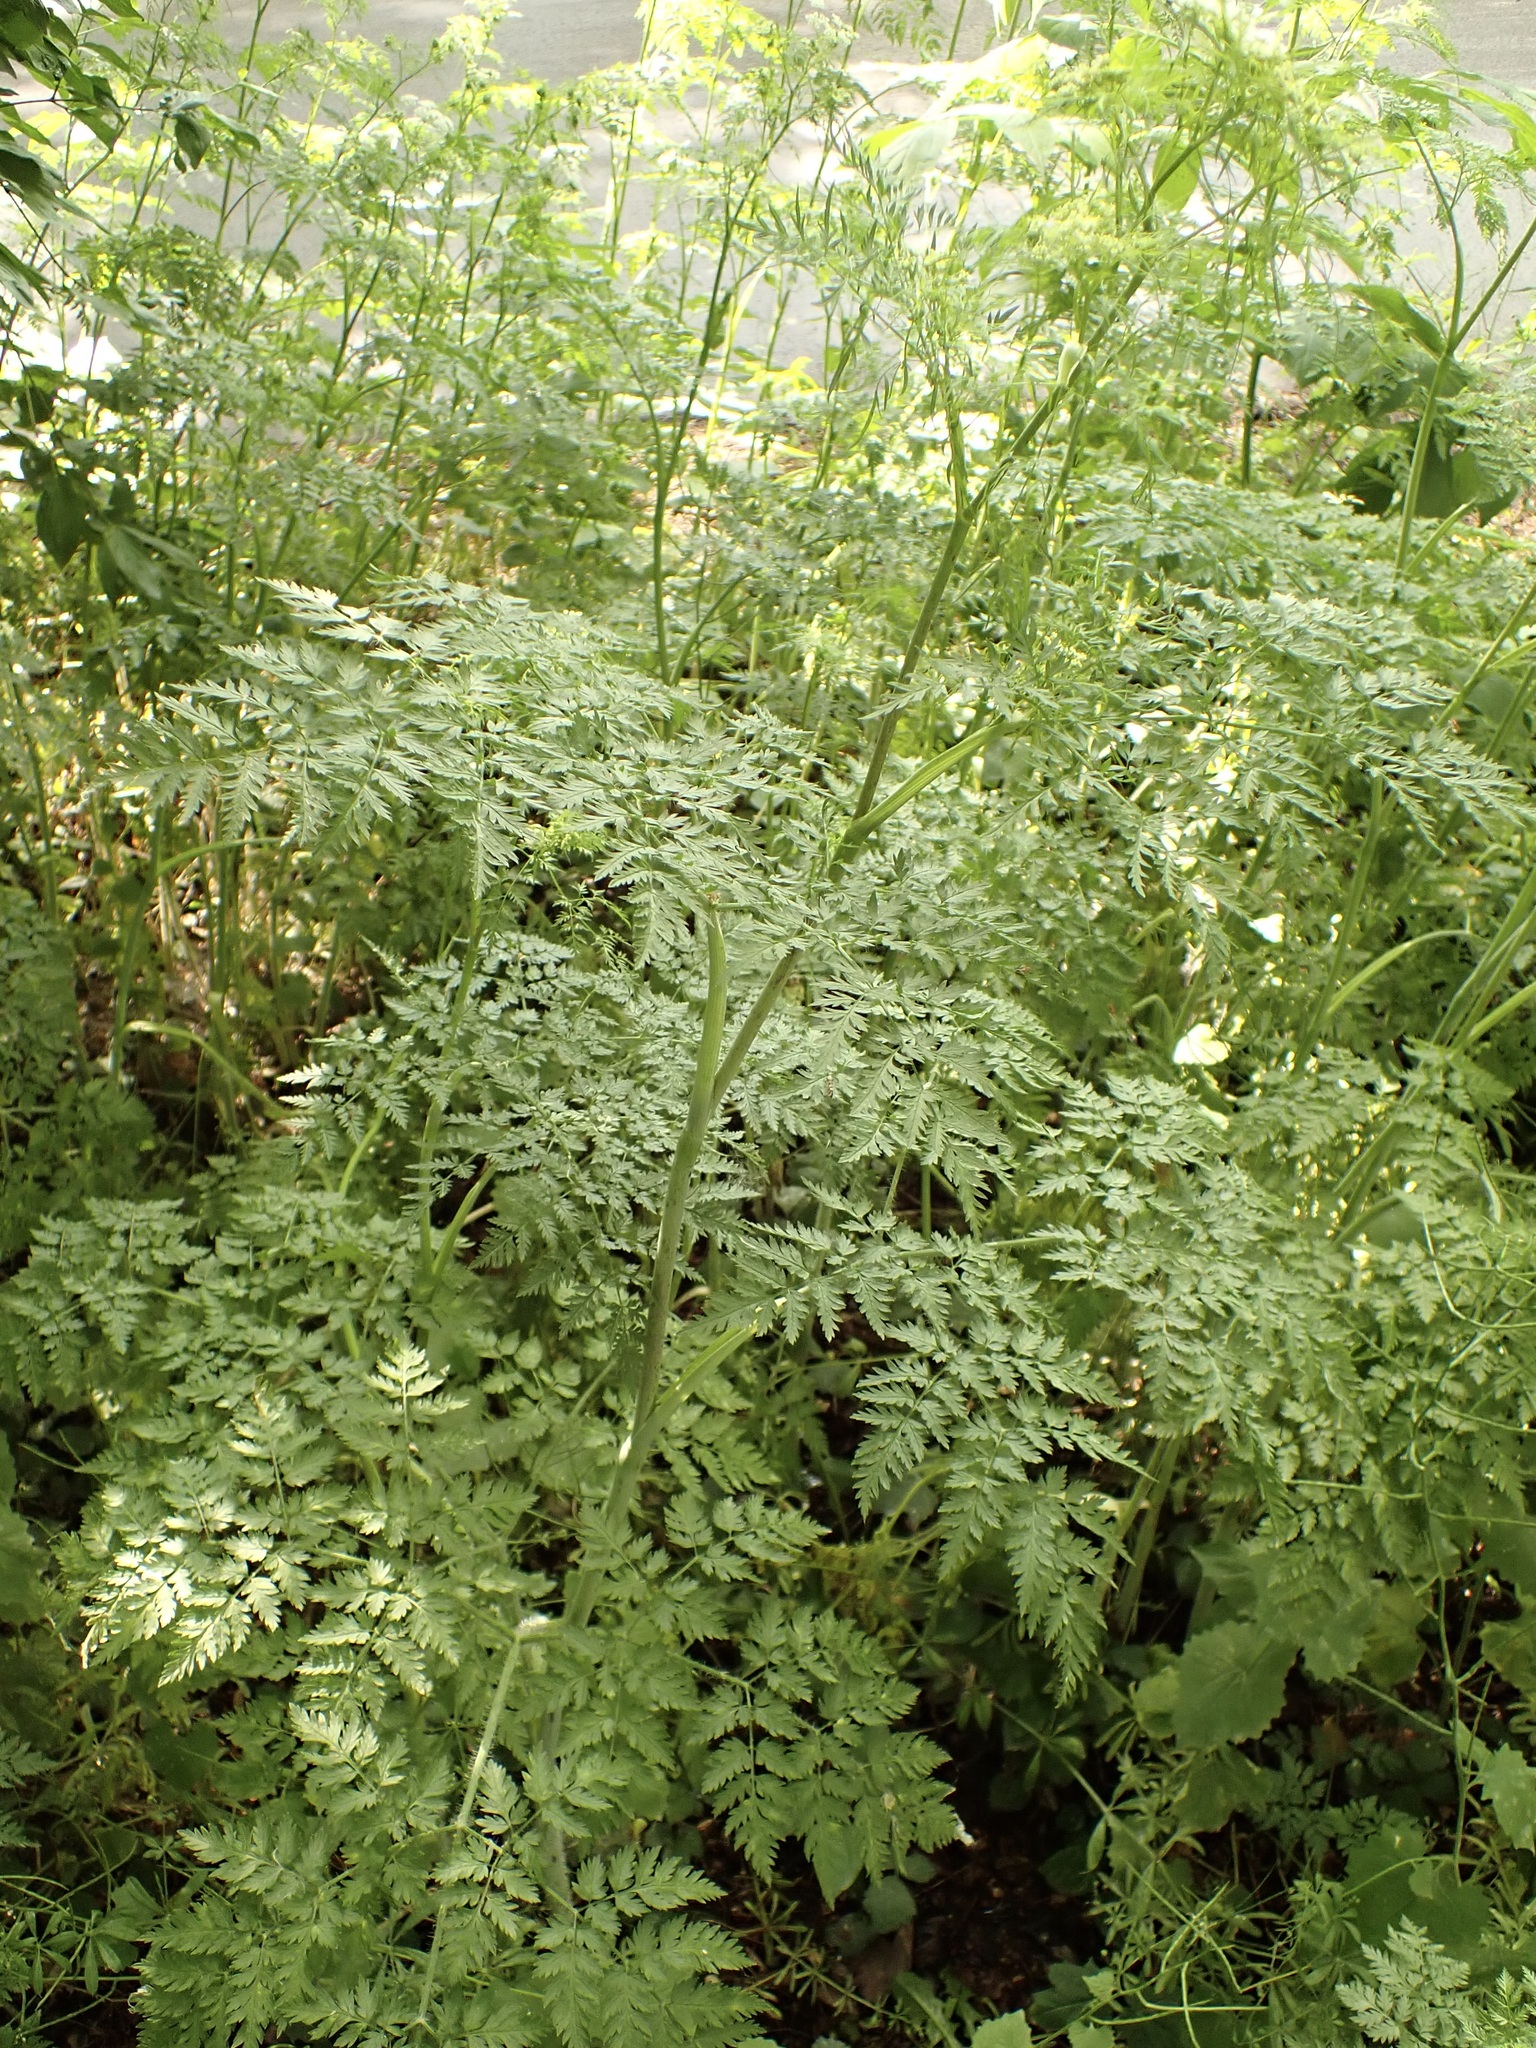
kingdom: Plantae
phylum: Tracheophyta
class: Magnoliopsida
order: Apiales
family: Apiaceae
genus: Chaerophyllum
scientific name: Chaerophyllum bulbosum
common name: Bulbous chervil
